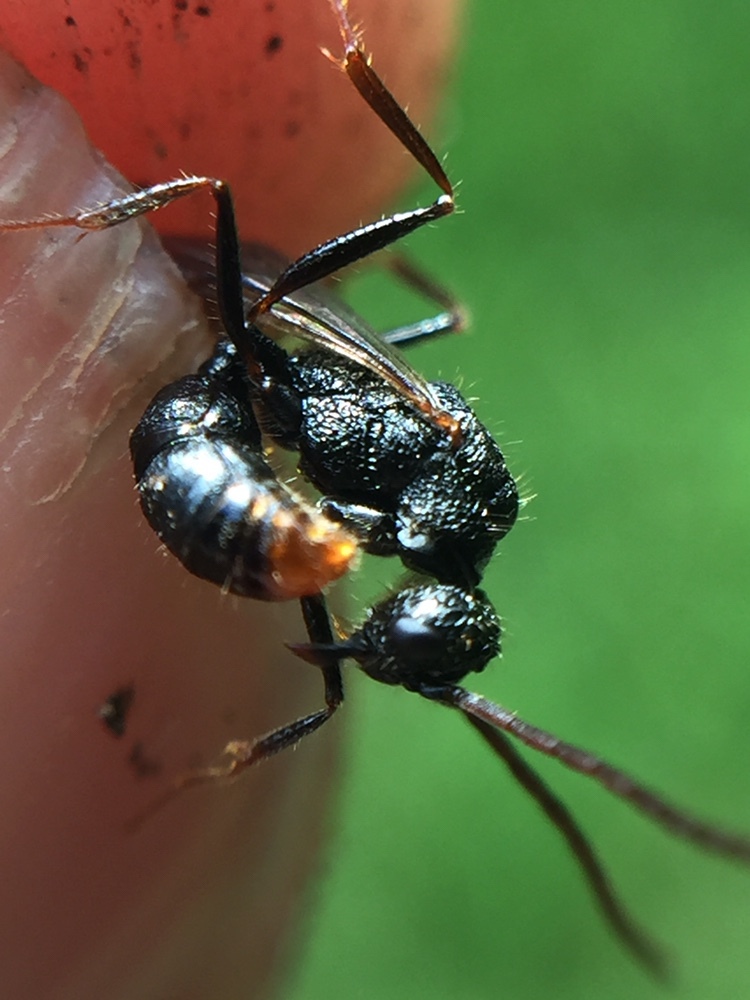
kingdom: Animalia
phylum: Arthropoda
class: Insecta
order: Hymenoptera
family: Formicidae
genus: Rhytidoponera
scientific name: Rhytidoponera chalybaea
